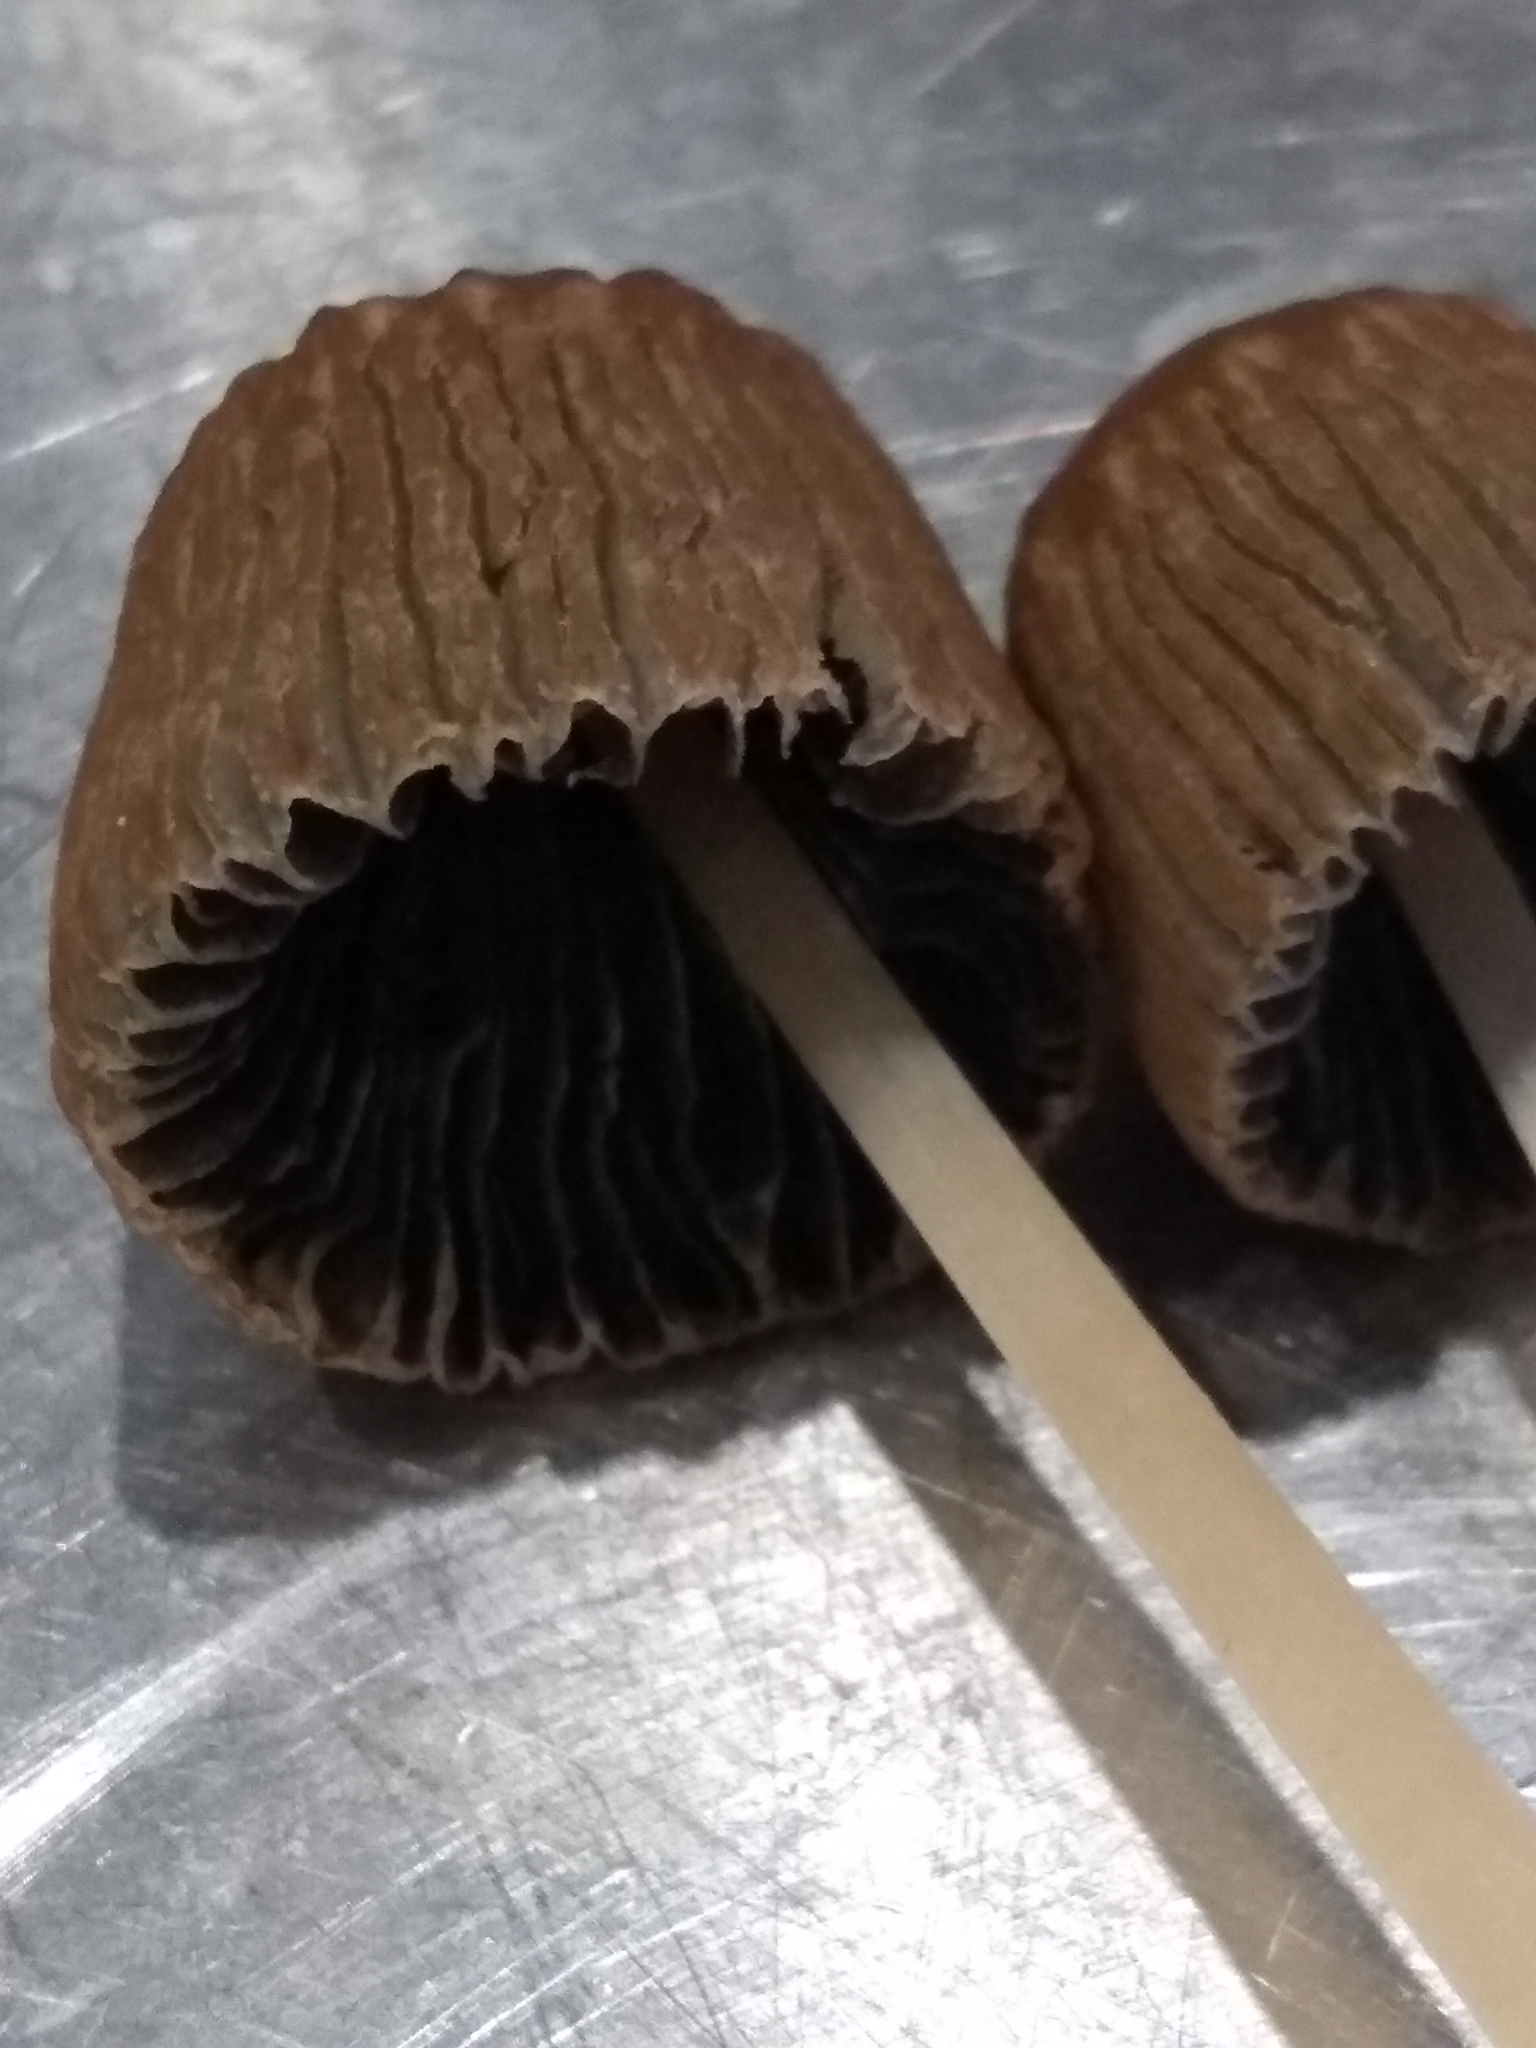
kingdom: Fungi
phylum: Basidiomycota
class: Agaricomycetes
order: Agaricales
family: Psathyrellaceae
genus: Parasola
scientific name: Parasola auricoma
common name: Goldenhaired inkcap
